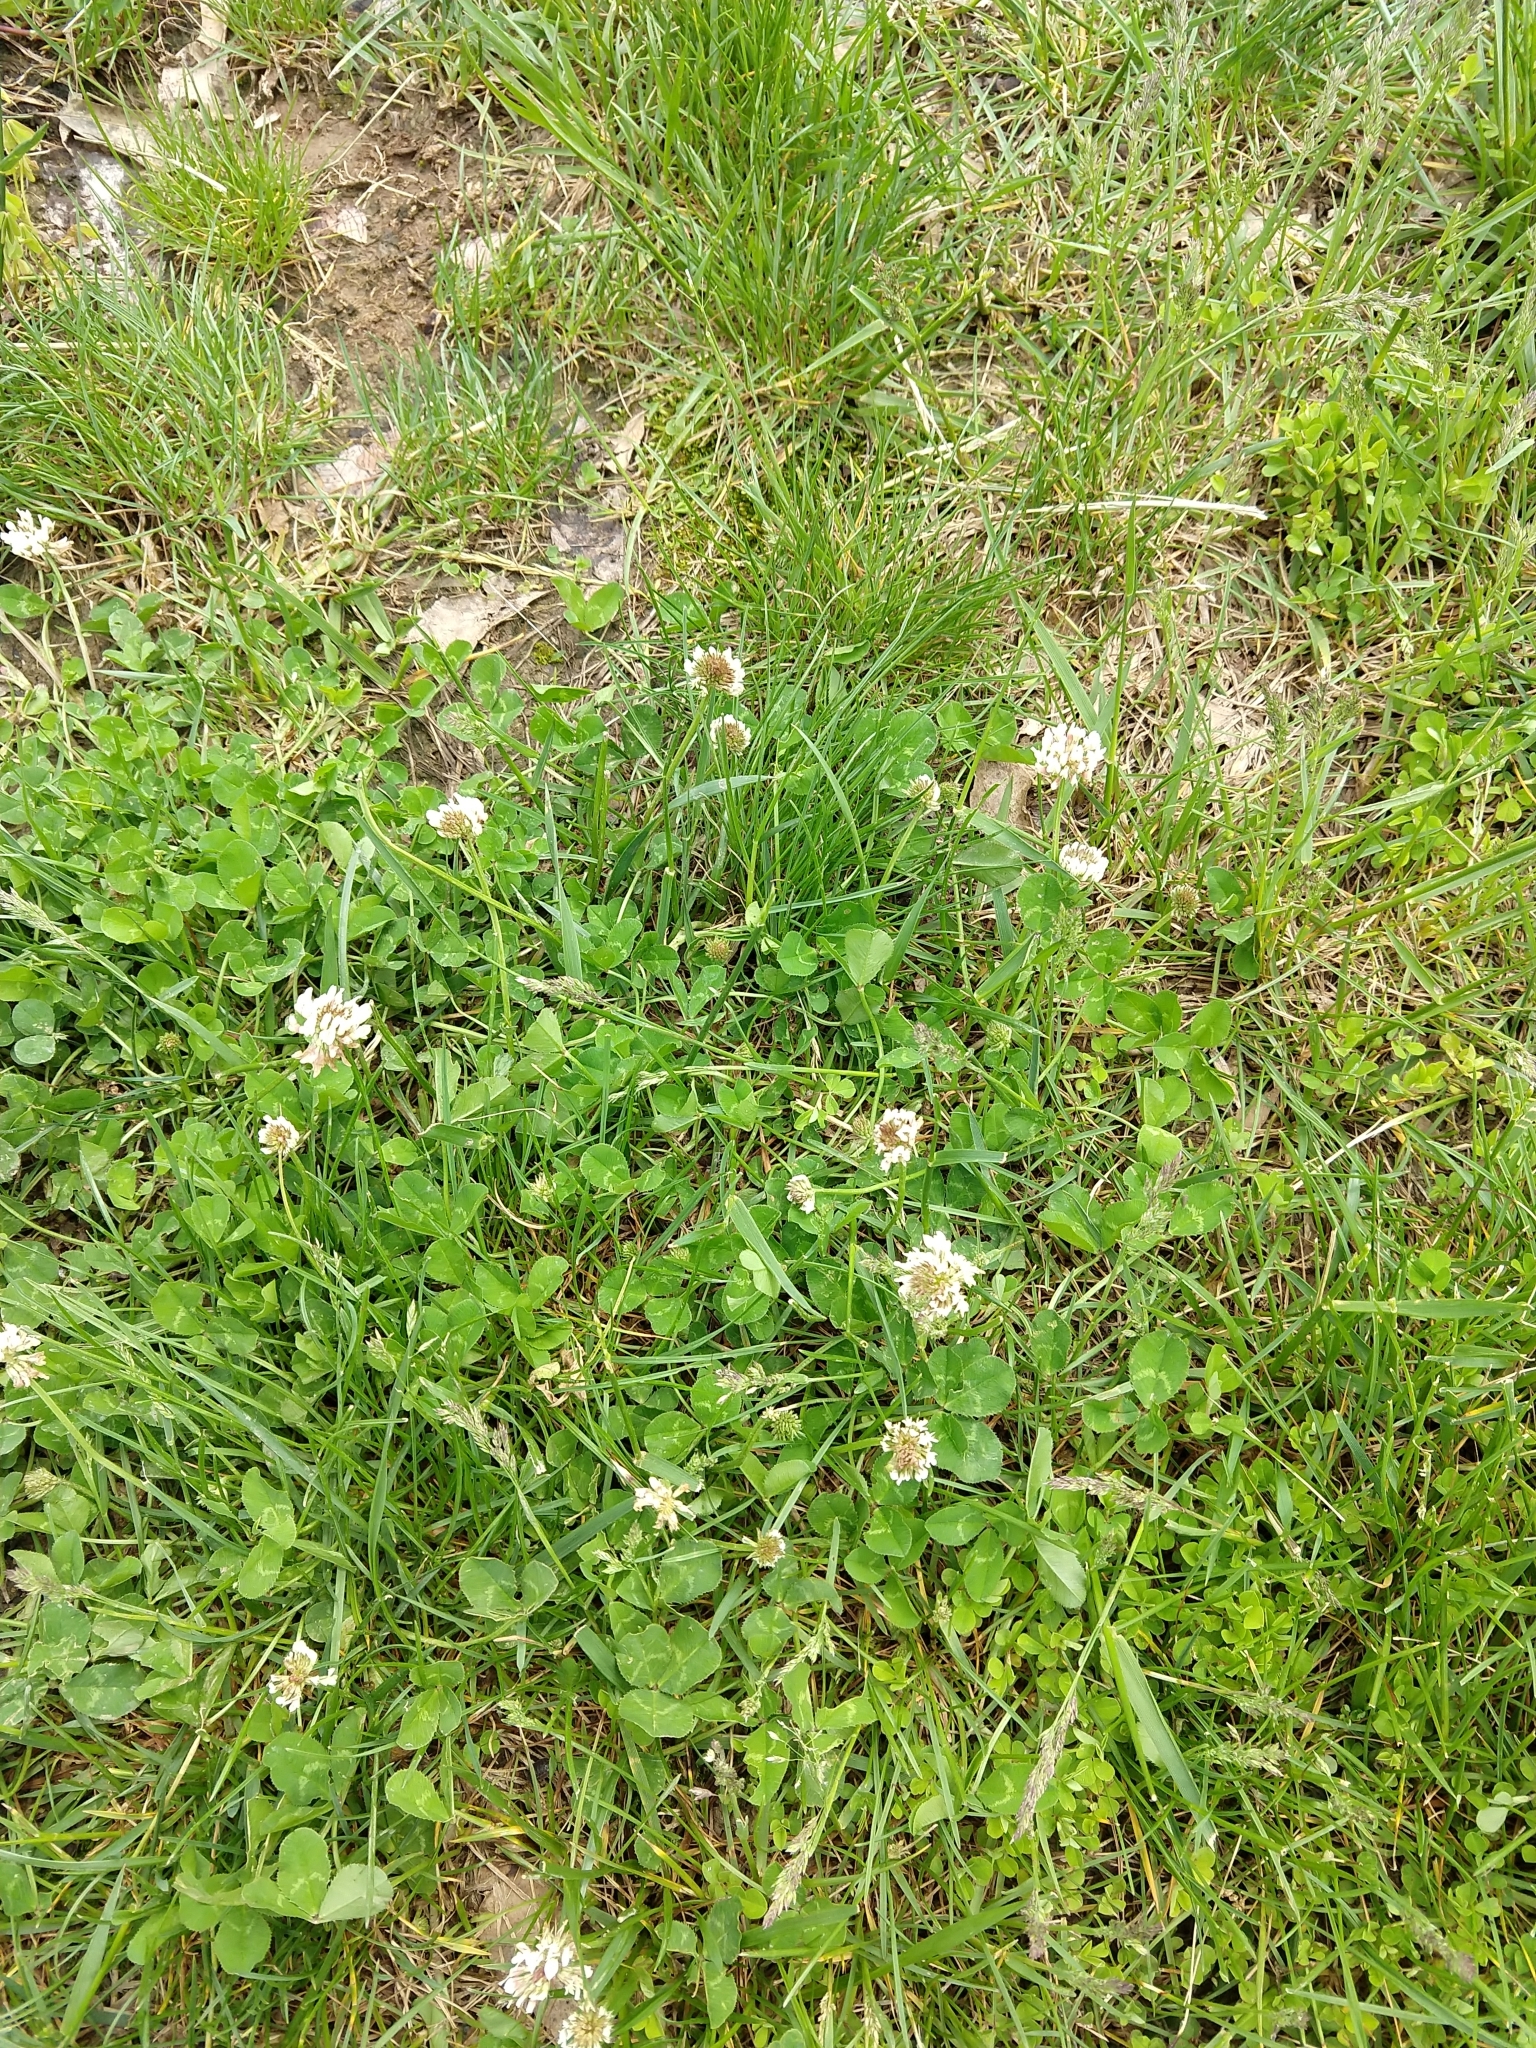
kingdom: Plantae
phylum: Tracheophyta
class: Magnoliopsida
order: Fabales
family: Fabaceae
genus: Trifolium
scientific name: Trifolium repens
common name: White clover
